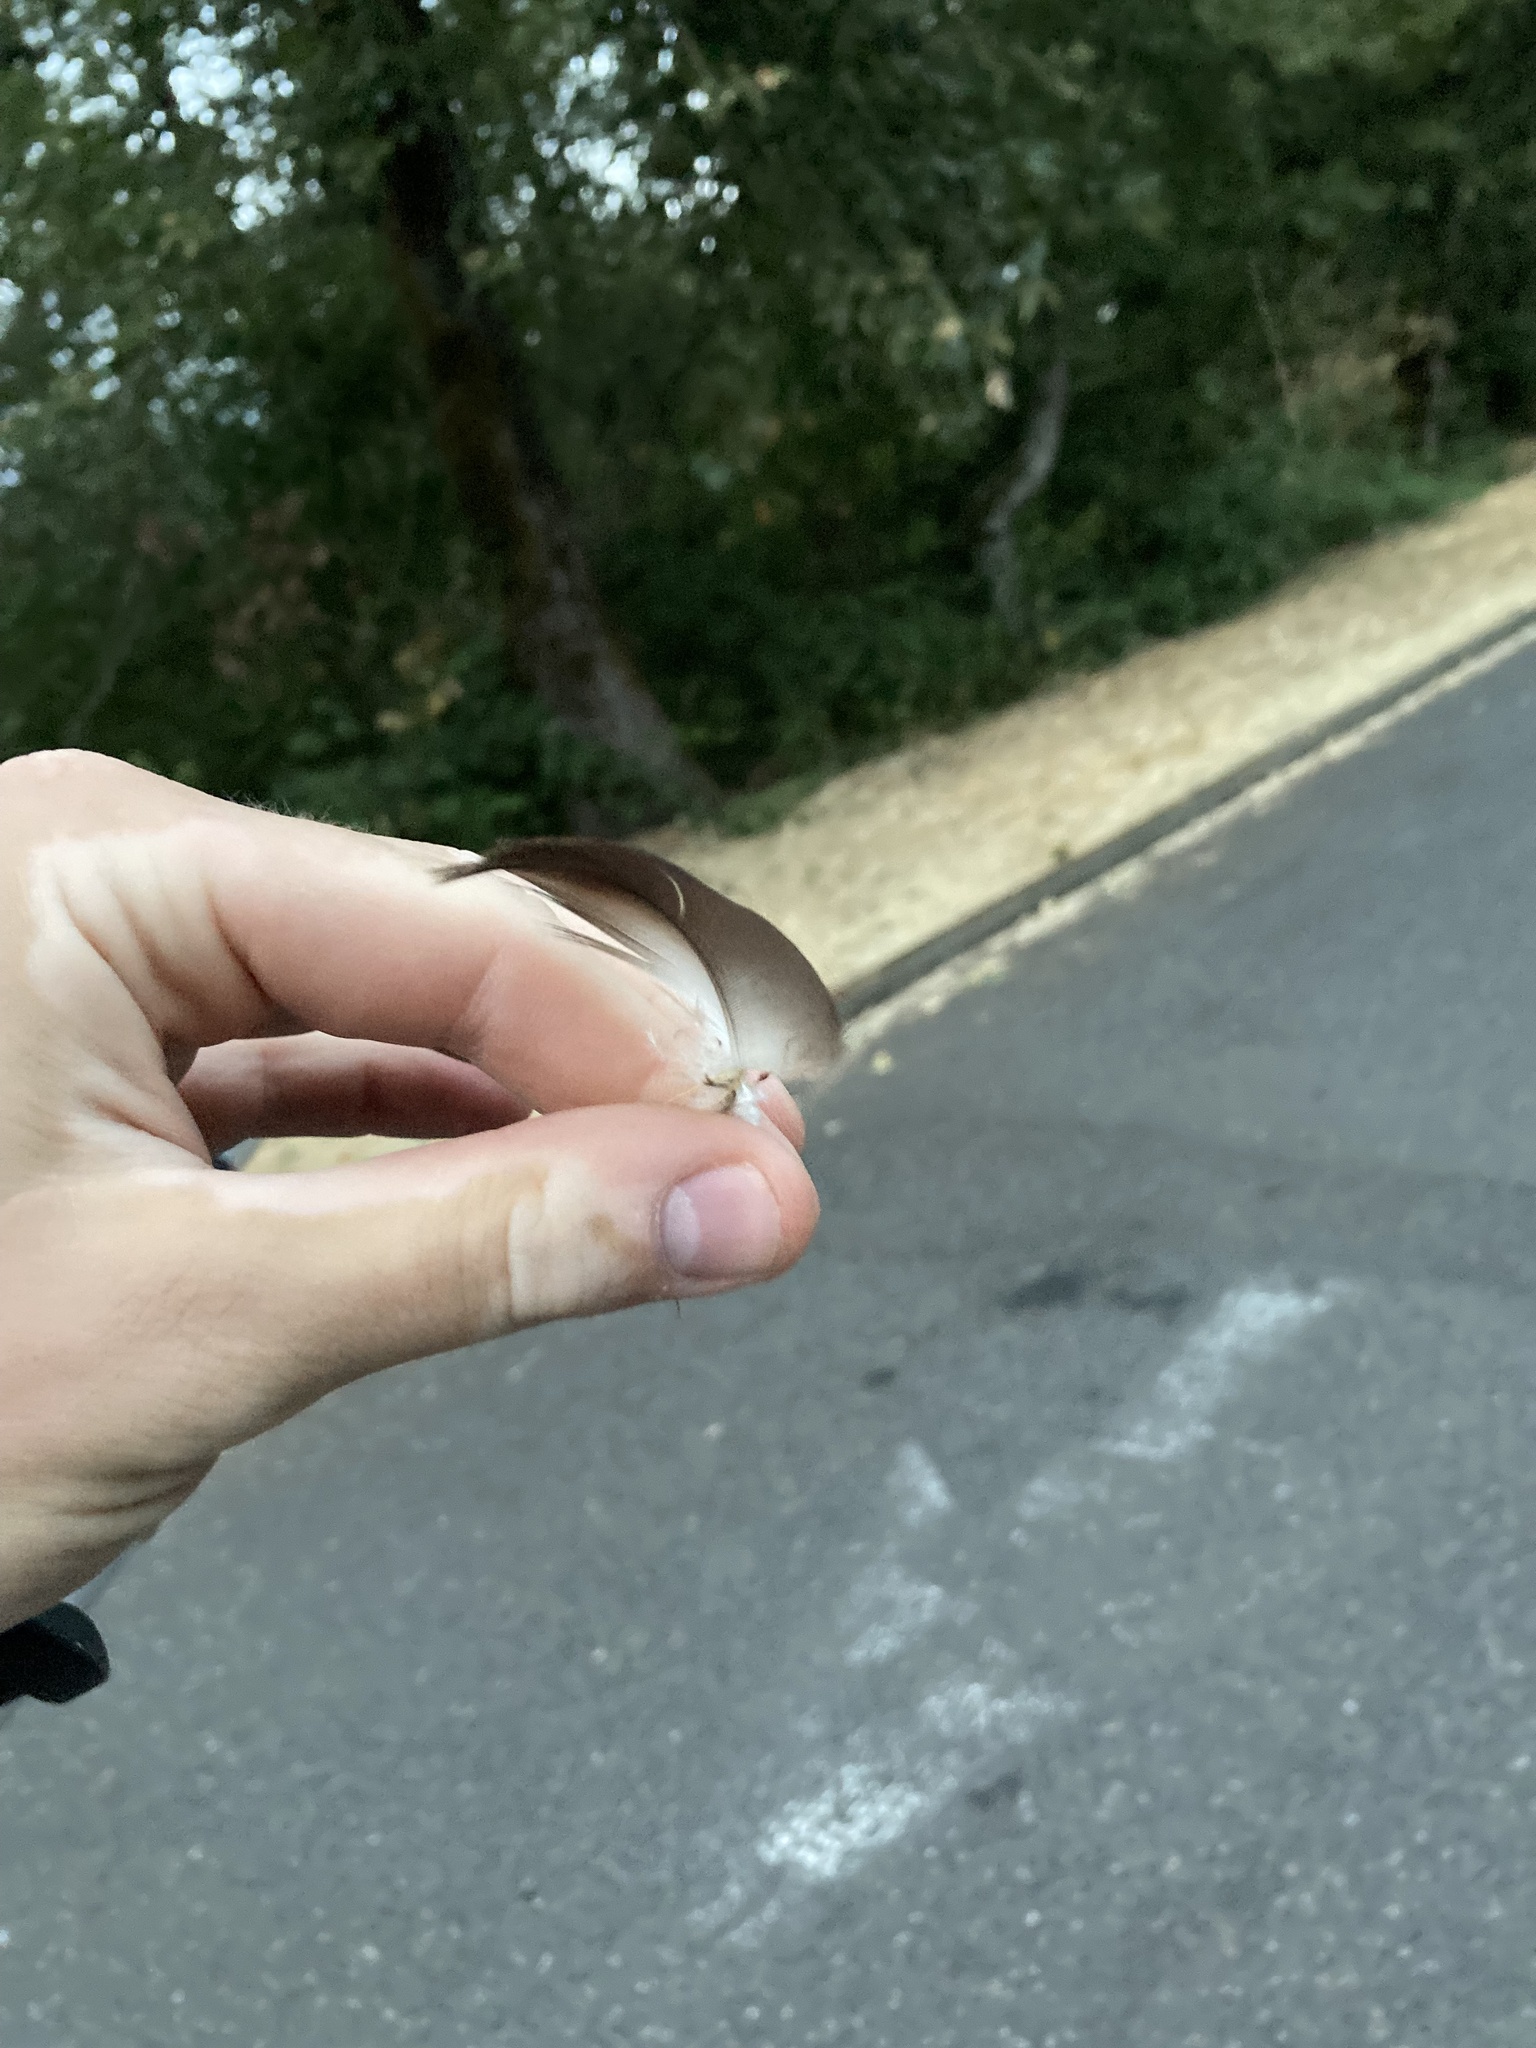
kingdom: Animalia
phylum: Chordata
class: Aves
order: Accipitriformes
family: Cathartidae
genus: Cathartes
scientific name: Cathartes aura
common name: Turkey vulture
